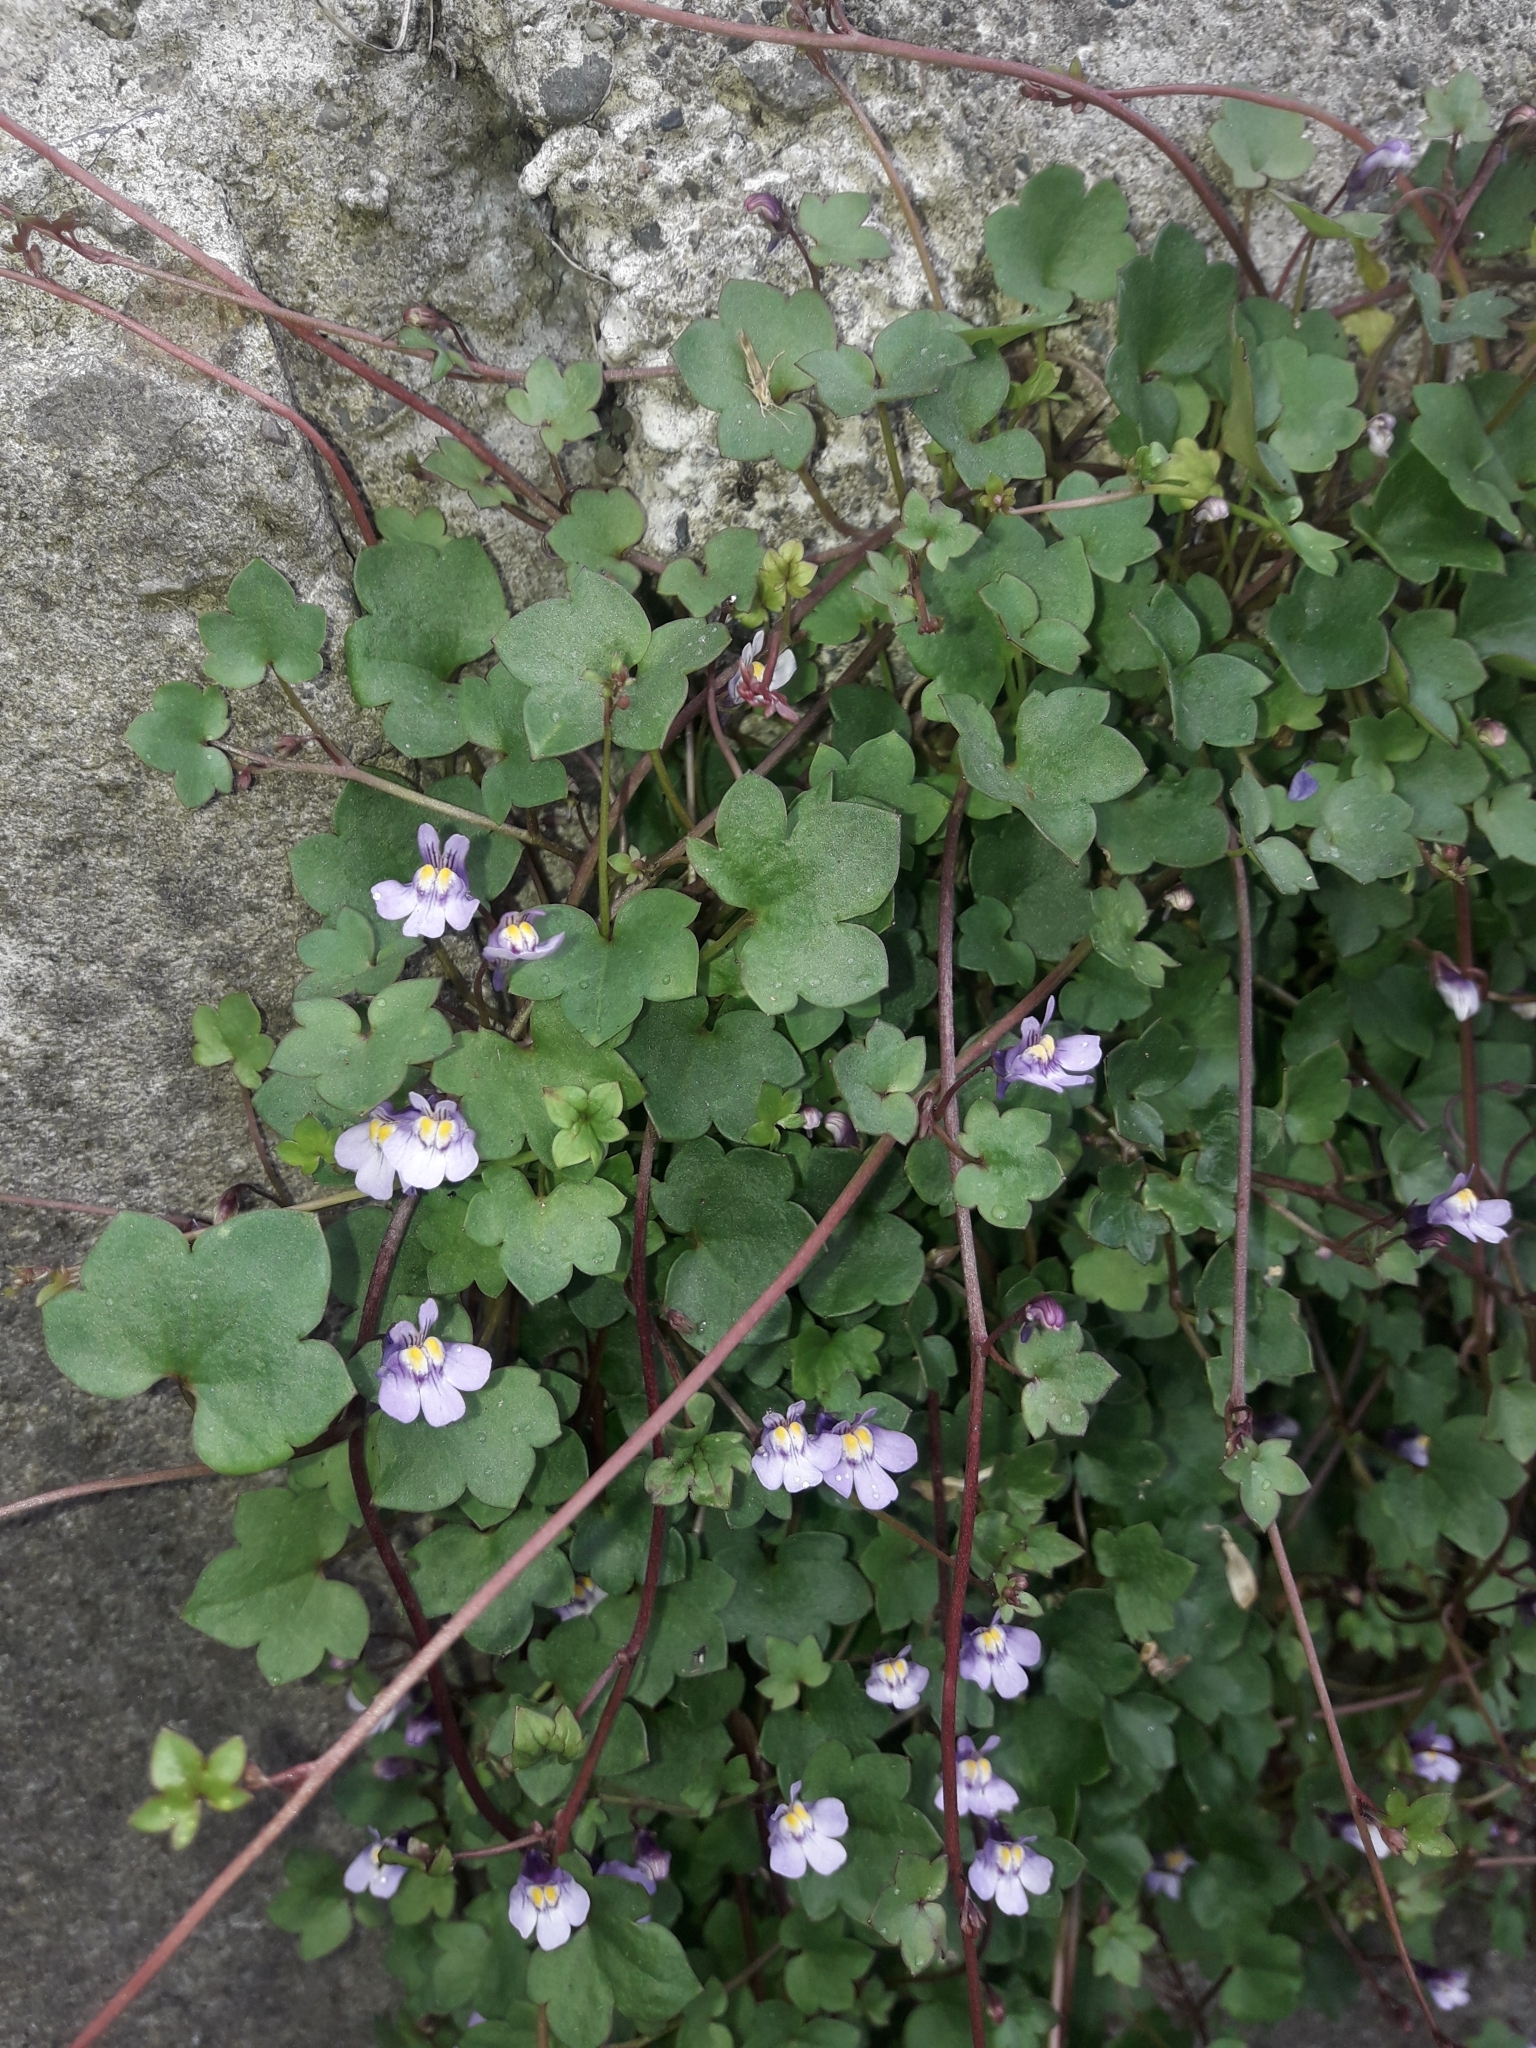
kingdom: Plantae
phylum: Tracheophyta
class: Magnoliopsida
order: Lamiales
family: Plantaginaceae
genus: Cymbalaria
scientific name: Cymbalaria muralis
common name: Ivy-leaved toadflax
